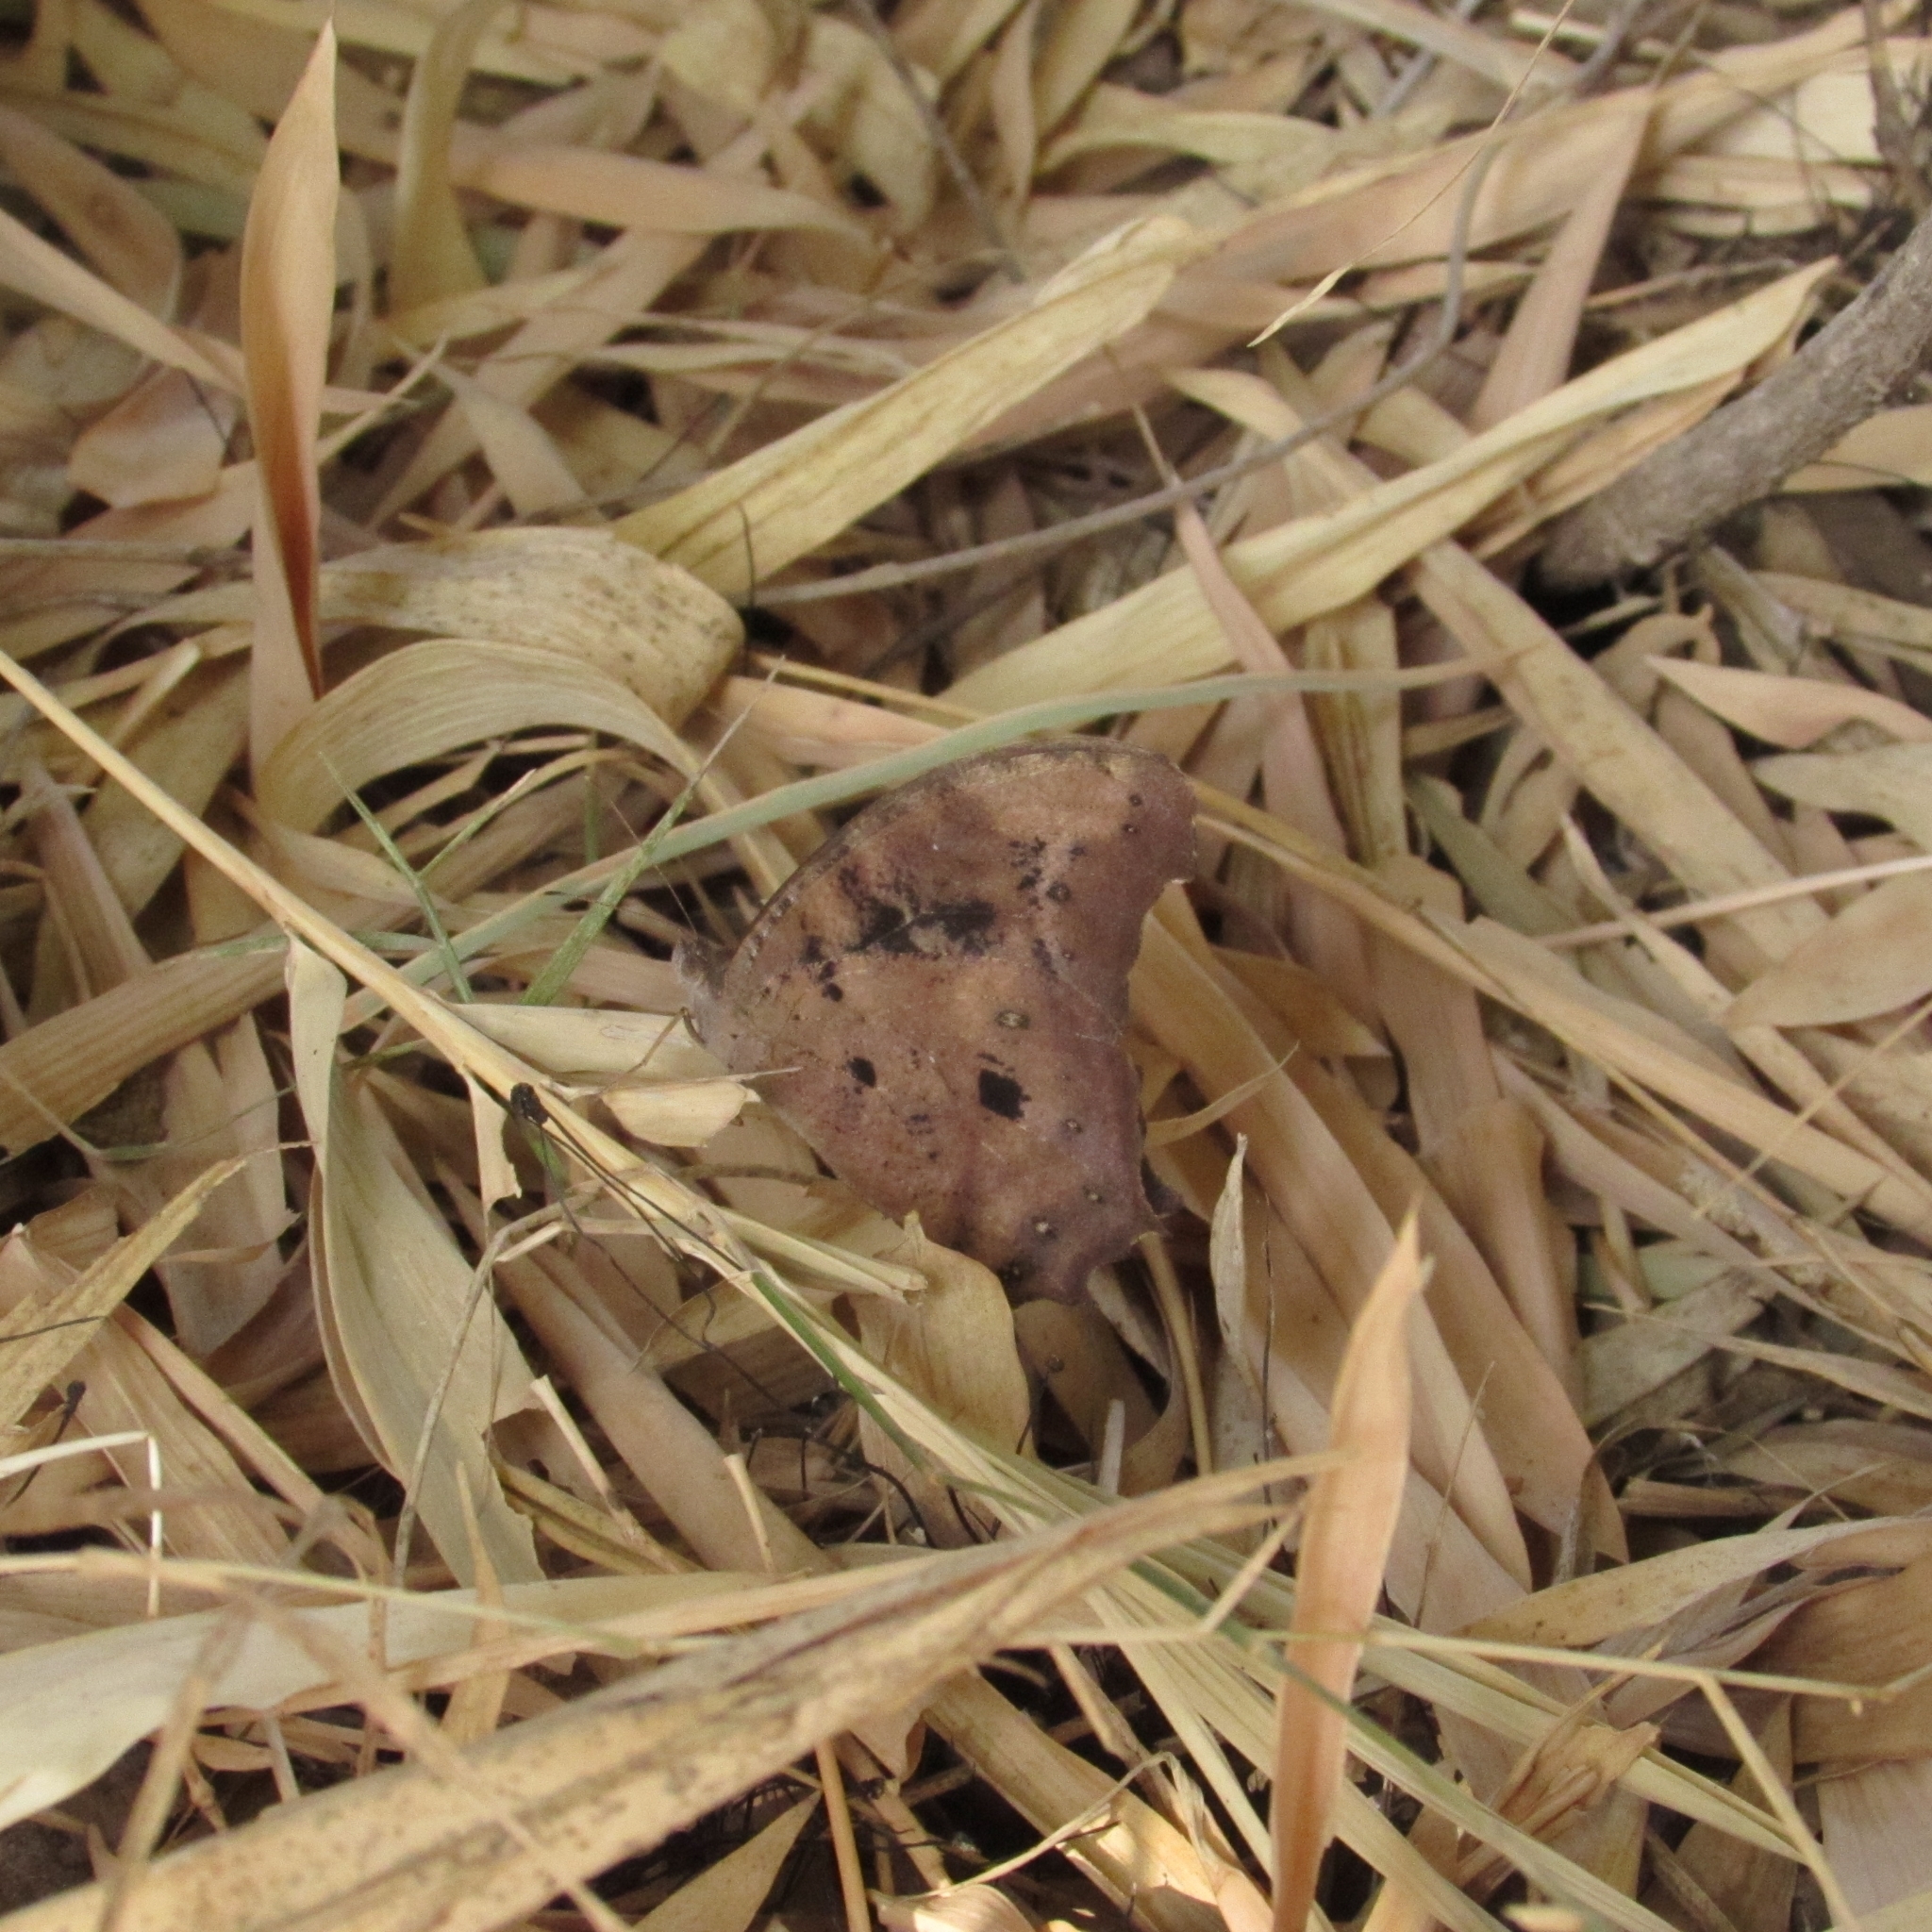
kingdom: Animalia
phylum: Arthropoda
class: Insecta
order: Lepidoptera
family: Nymphalidae
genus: Melanitis
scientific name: Melanitis leda
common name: Twilight brown
